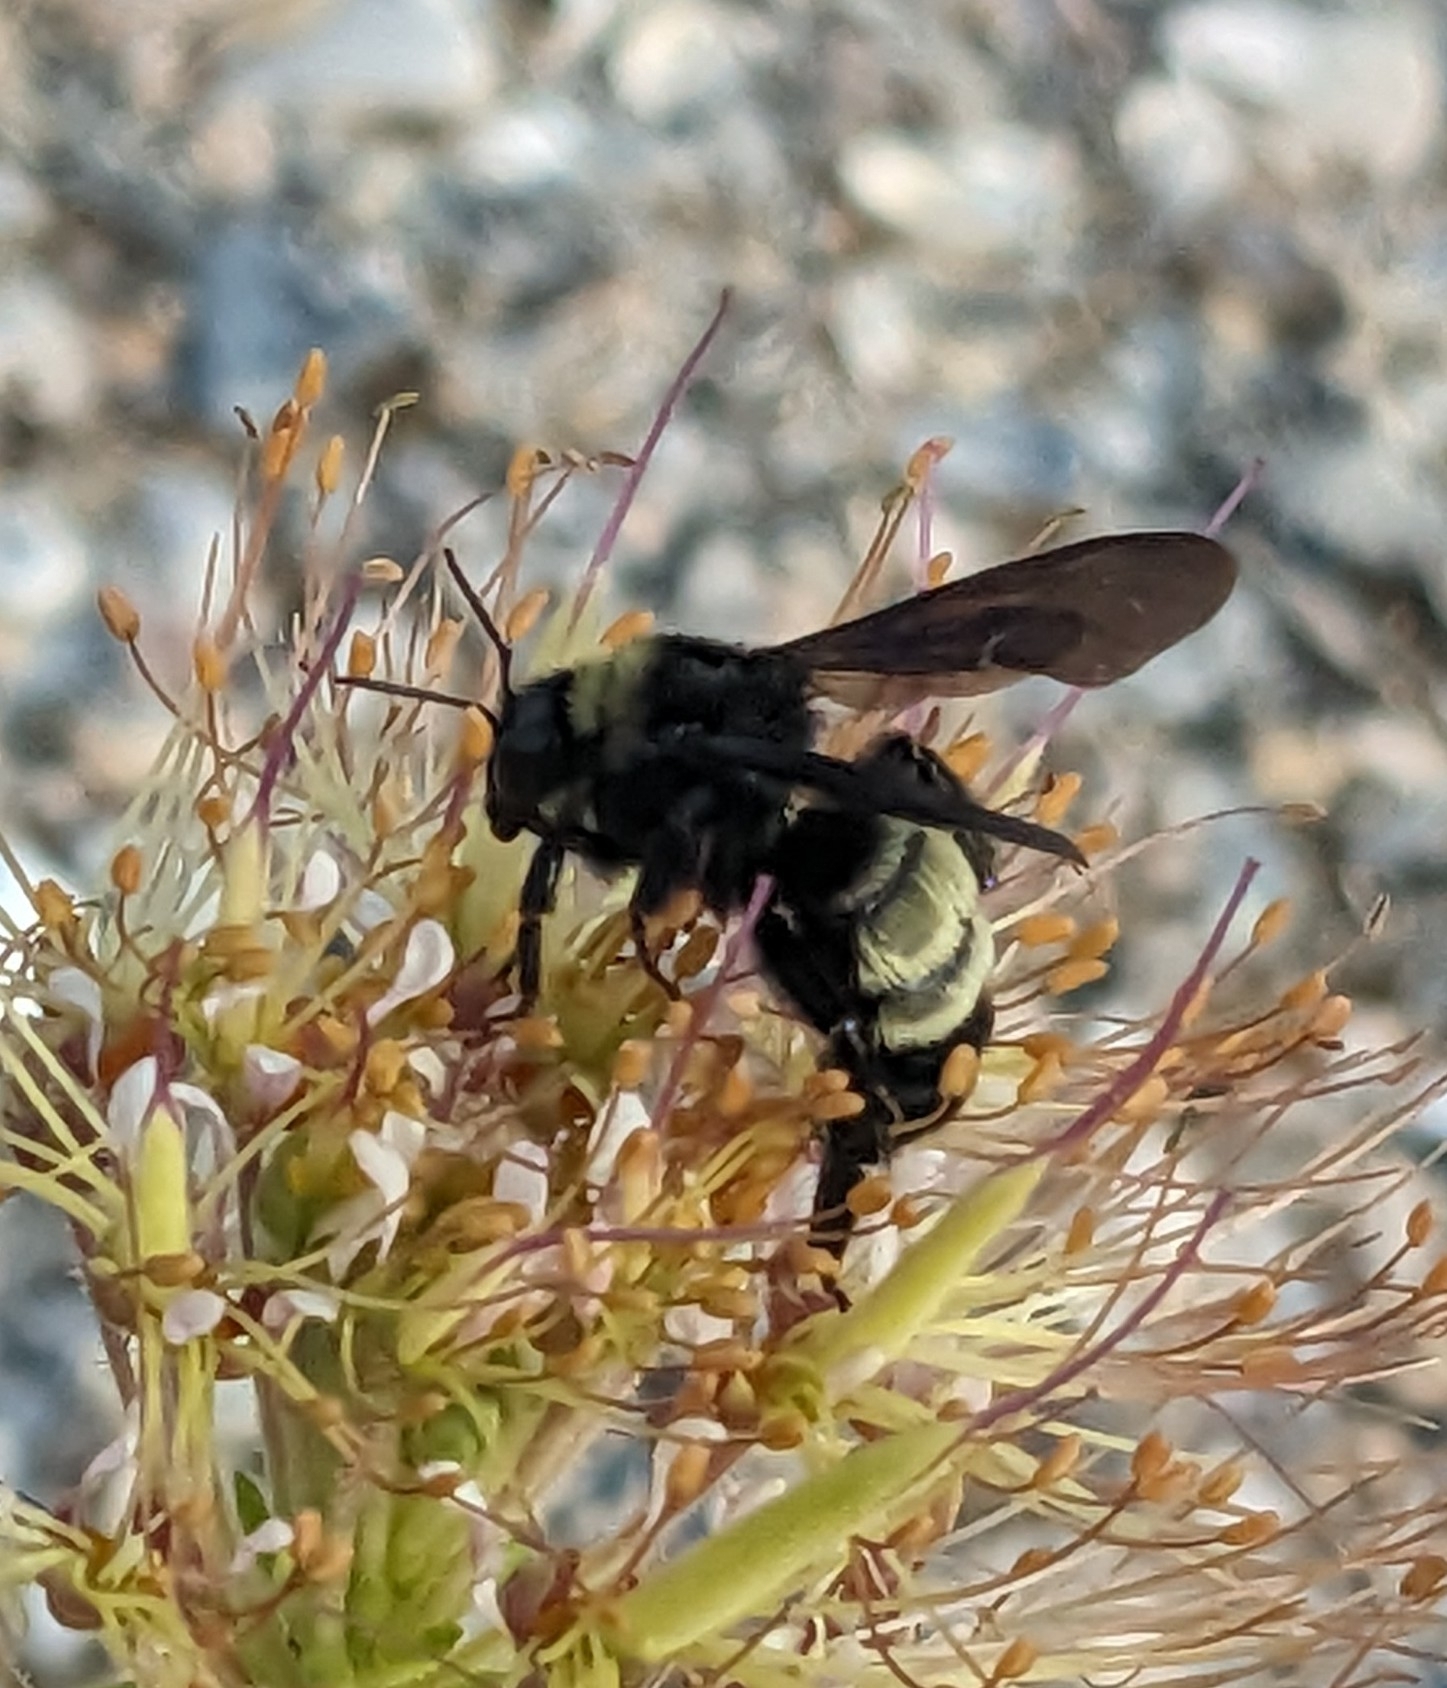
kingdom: Animalia
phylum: Arthropoda
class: Insecta
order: Hymenoptera
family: Apidae
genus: Bombus
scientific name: Bombus pensylvanicus
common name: Bumble bee
